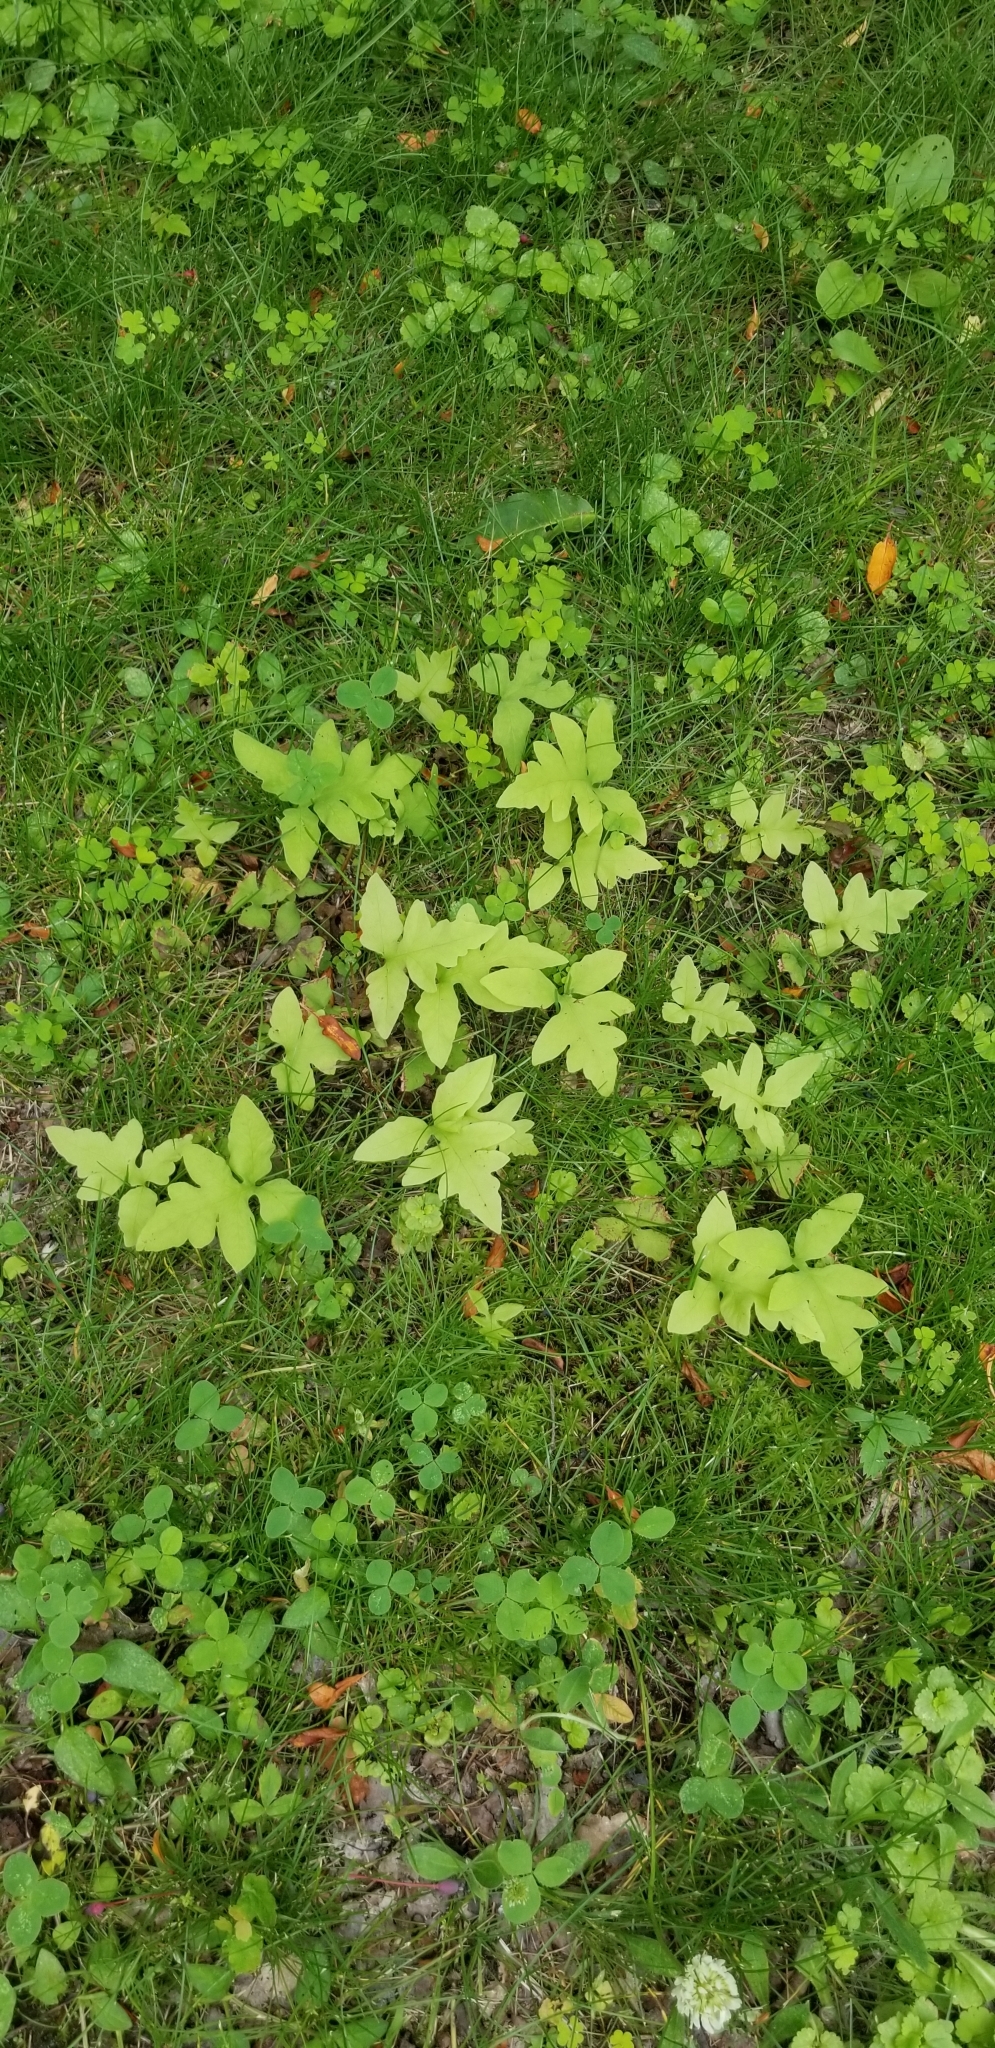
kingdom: Plantae
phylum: Tracheophyta
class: Polypodiopsida
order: Polypodiales
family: Onocleaceae
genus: Onoclea
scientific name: Onoclea sensibilis
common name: Sensitive fern
